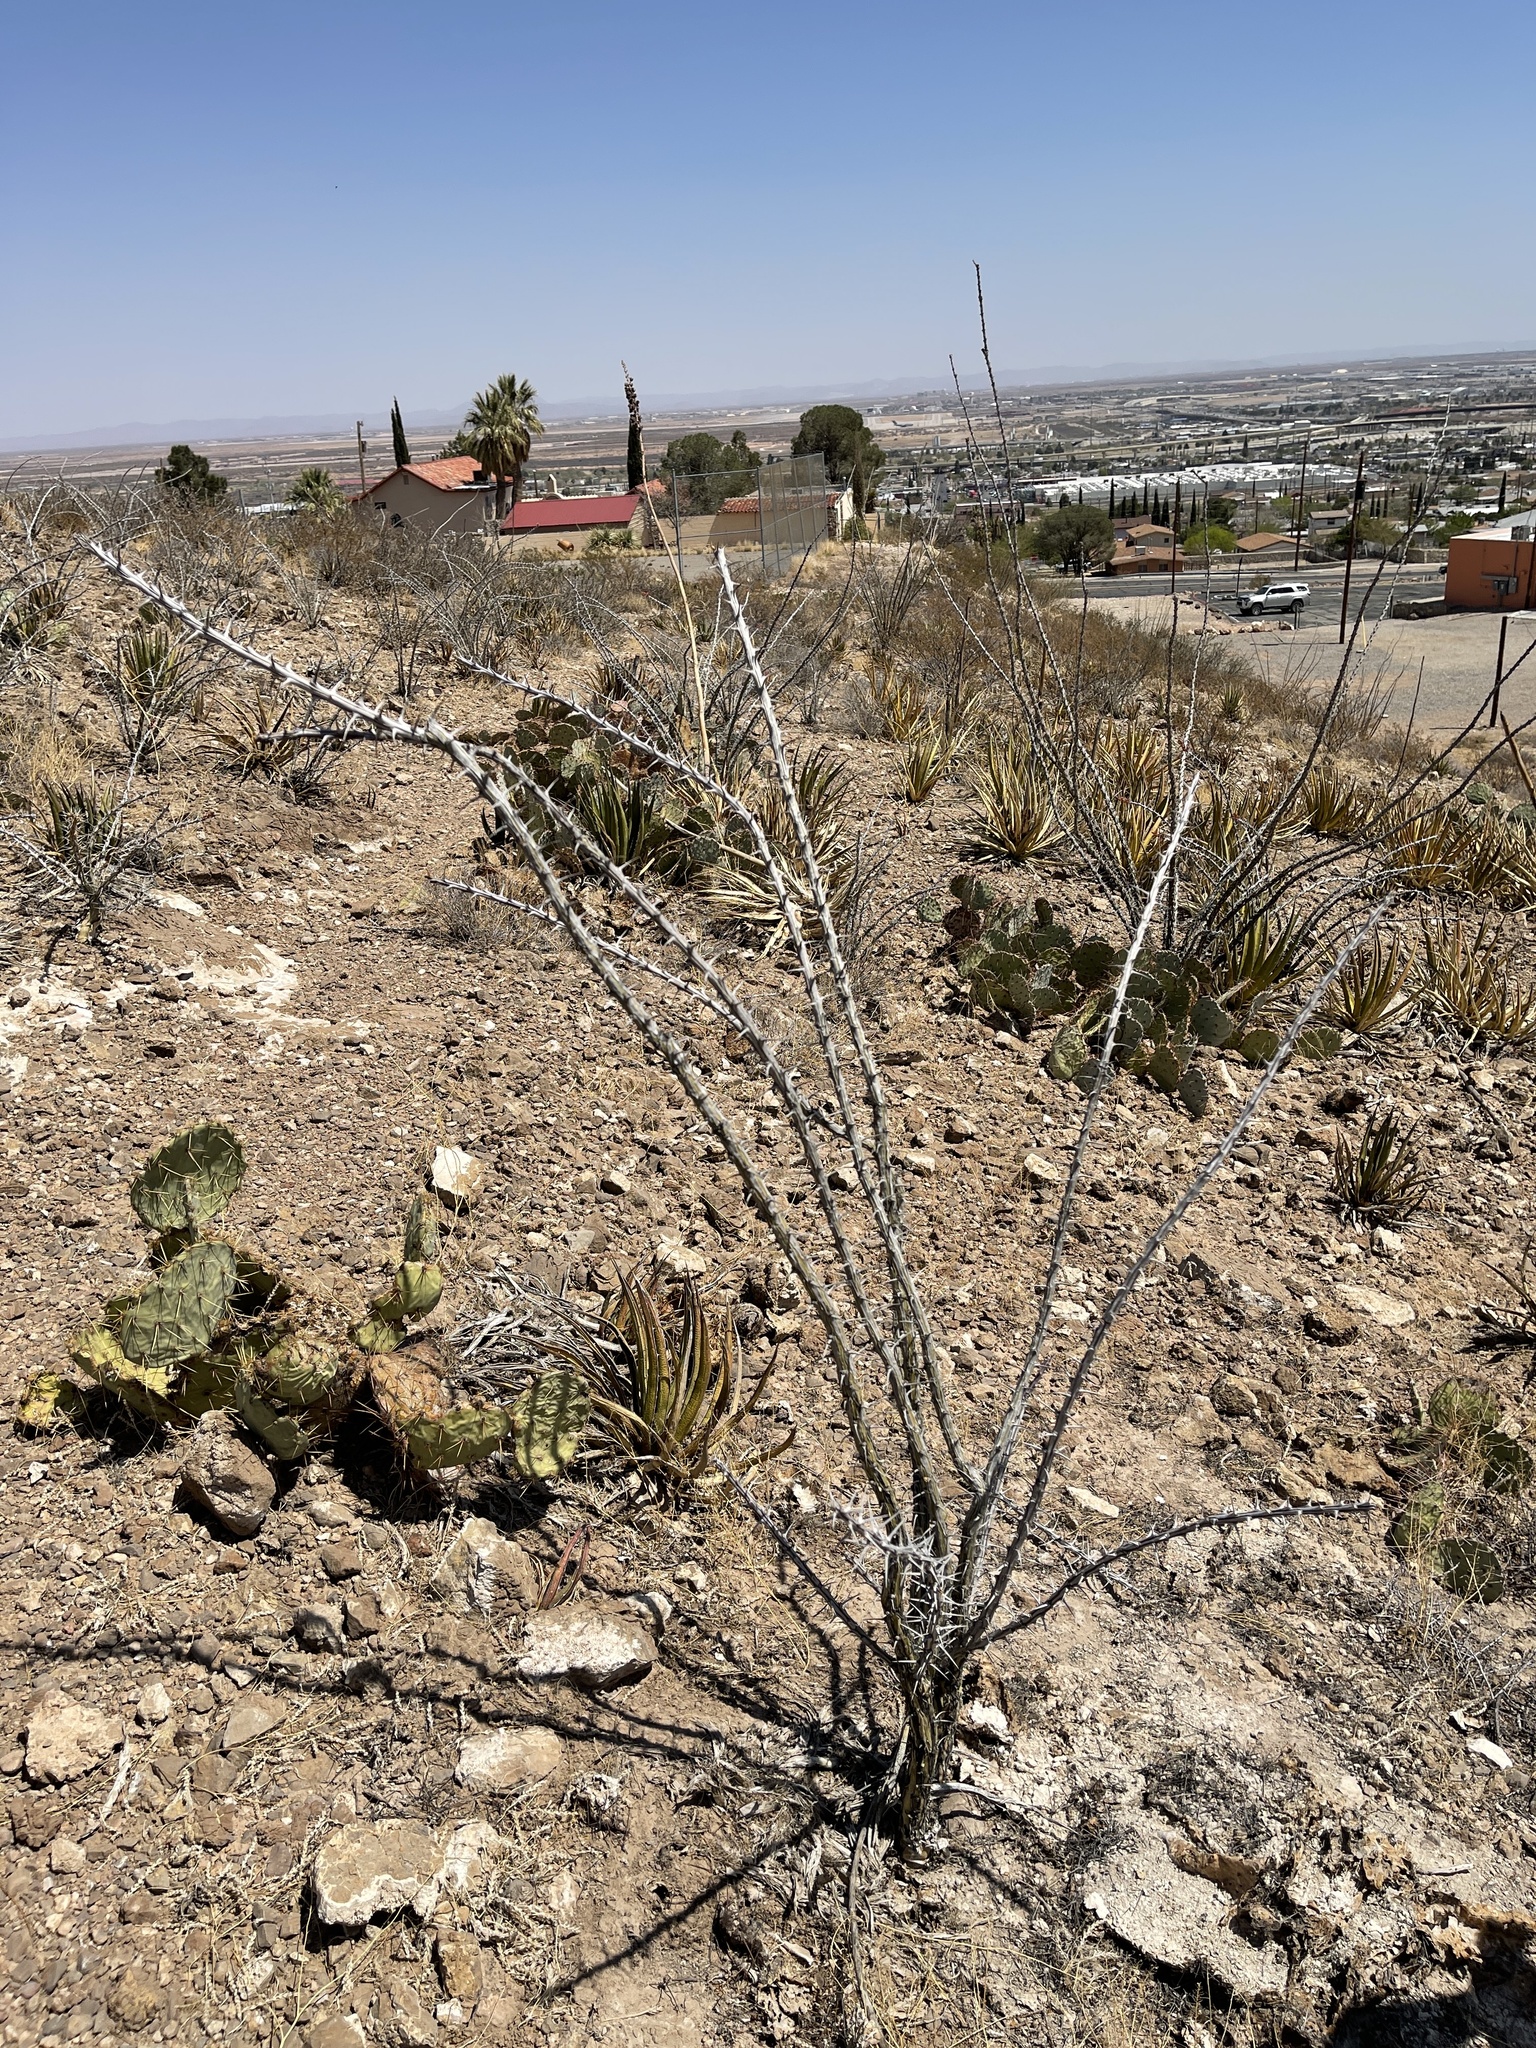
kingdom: Plantae
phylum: Tracheophyta
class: Magnoliopsida
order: Ericales
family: Fouquieriaceae
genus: Fouquieria
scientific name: Fouquieria splendens
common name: Vine-cactus
